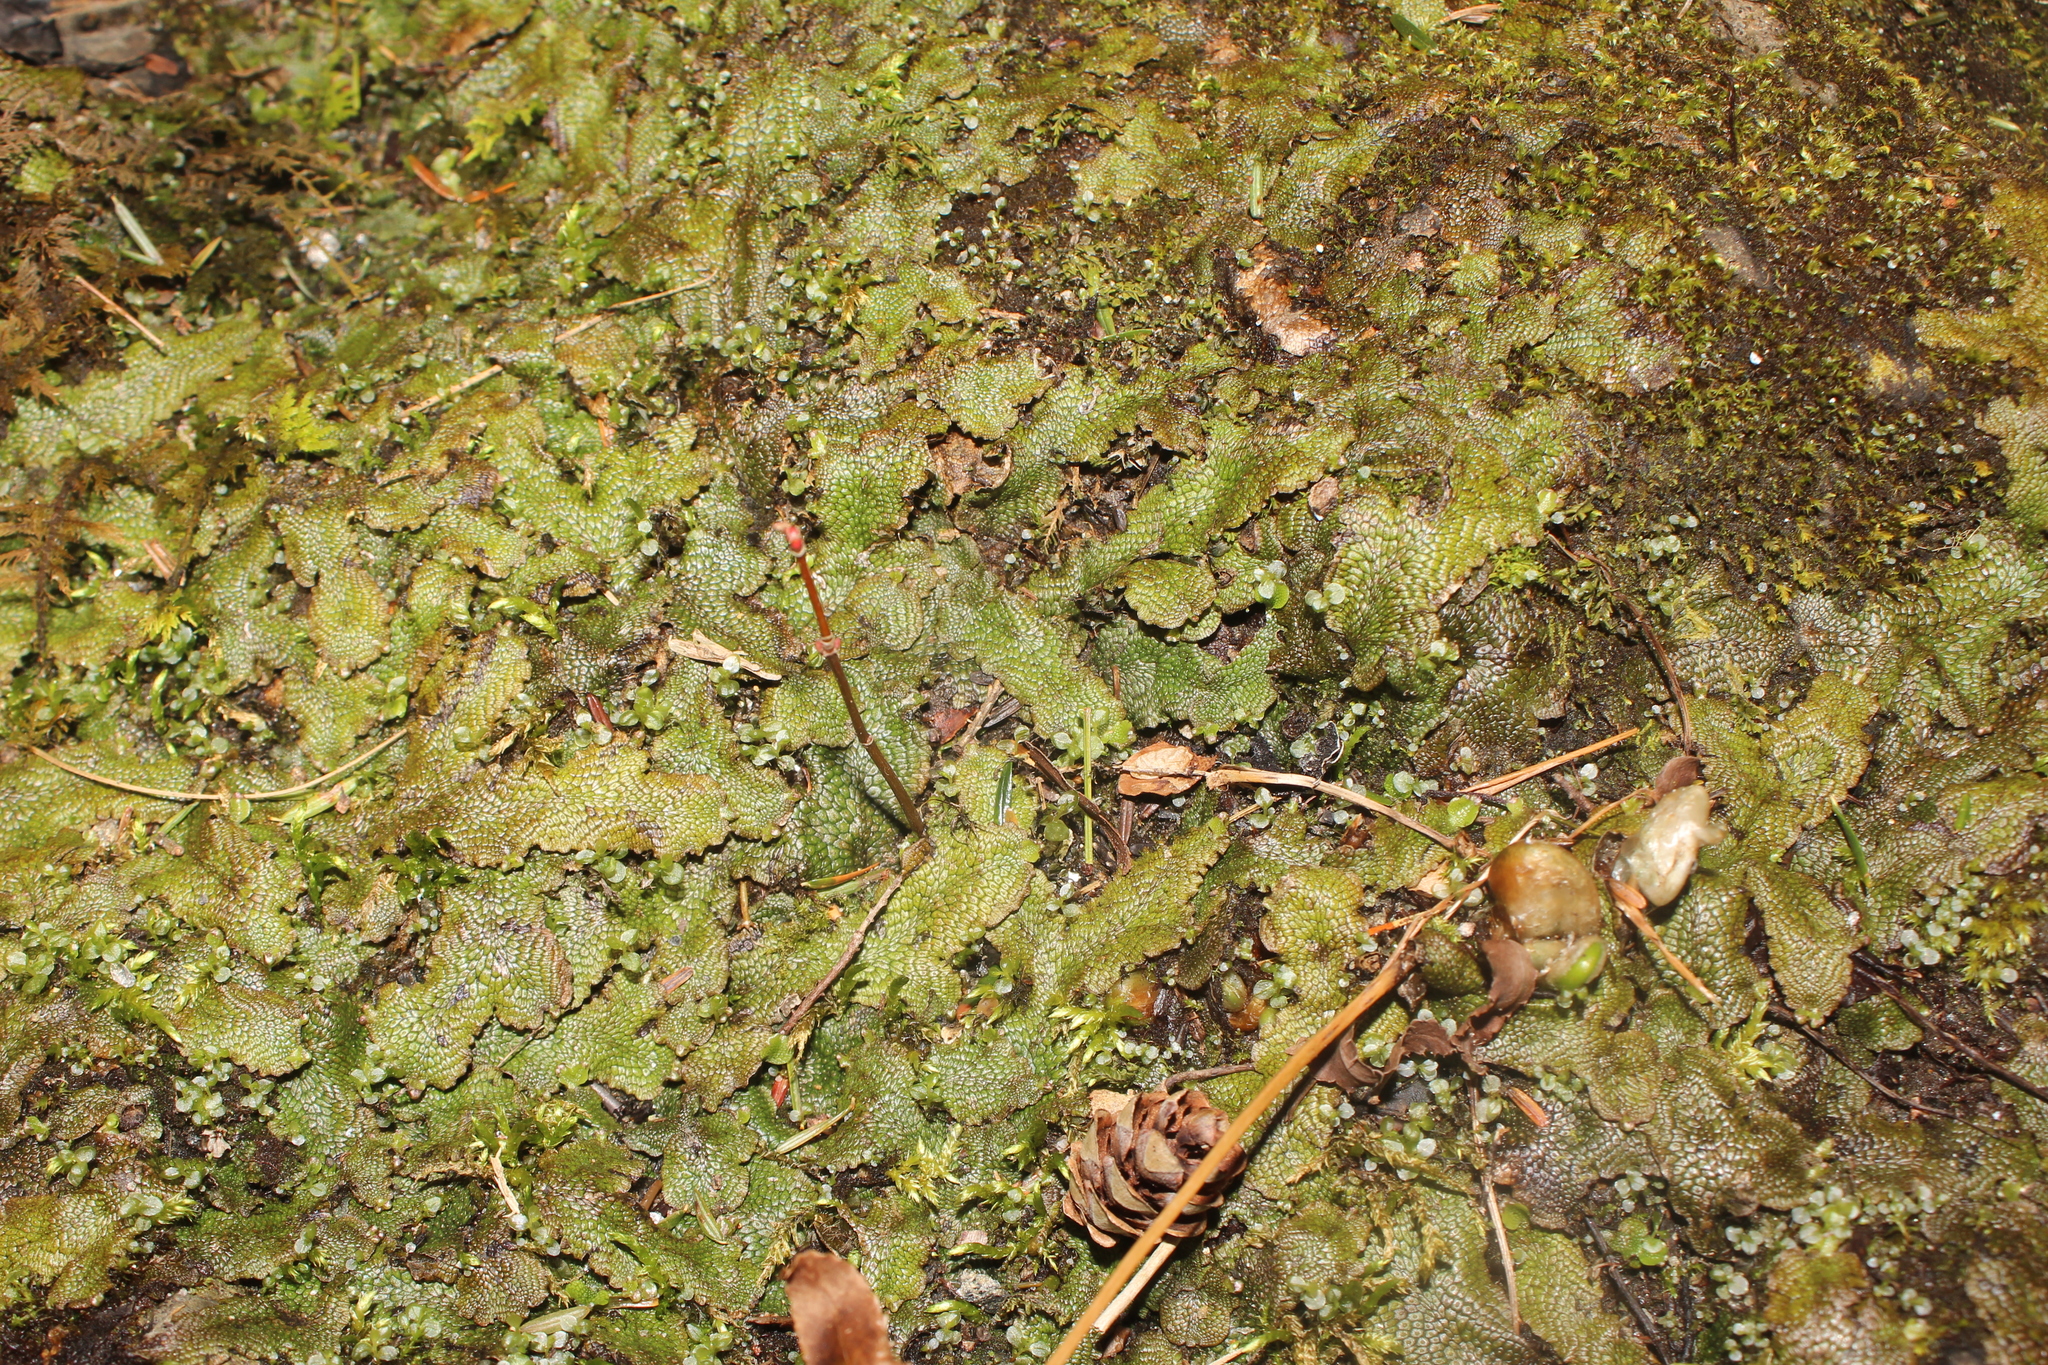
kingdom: Plantae
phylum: Marchantiophyta
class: Marchantiopsida
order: Marchantiales
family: Conocephalaceae
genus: Conocephalum
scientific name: Conocephalum salebrosum
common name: Cat-tongue liverwort
